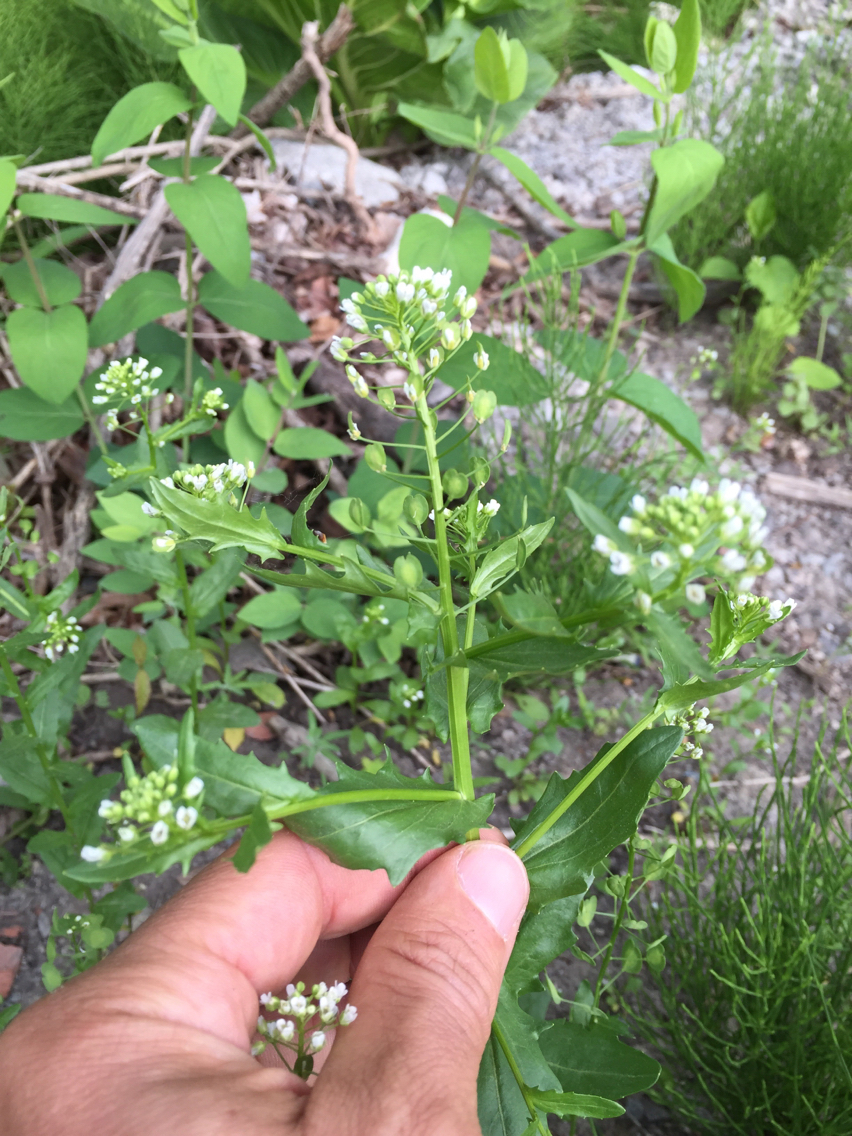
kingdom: Plantae
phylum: Tracheophyta
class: Magnoliopsida
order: Brassicales
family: Brassicaceae
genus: Thlaspi
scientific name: Thlaspi arvense
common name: Field pennycress
